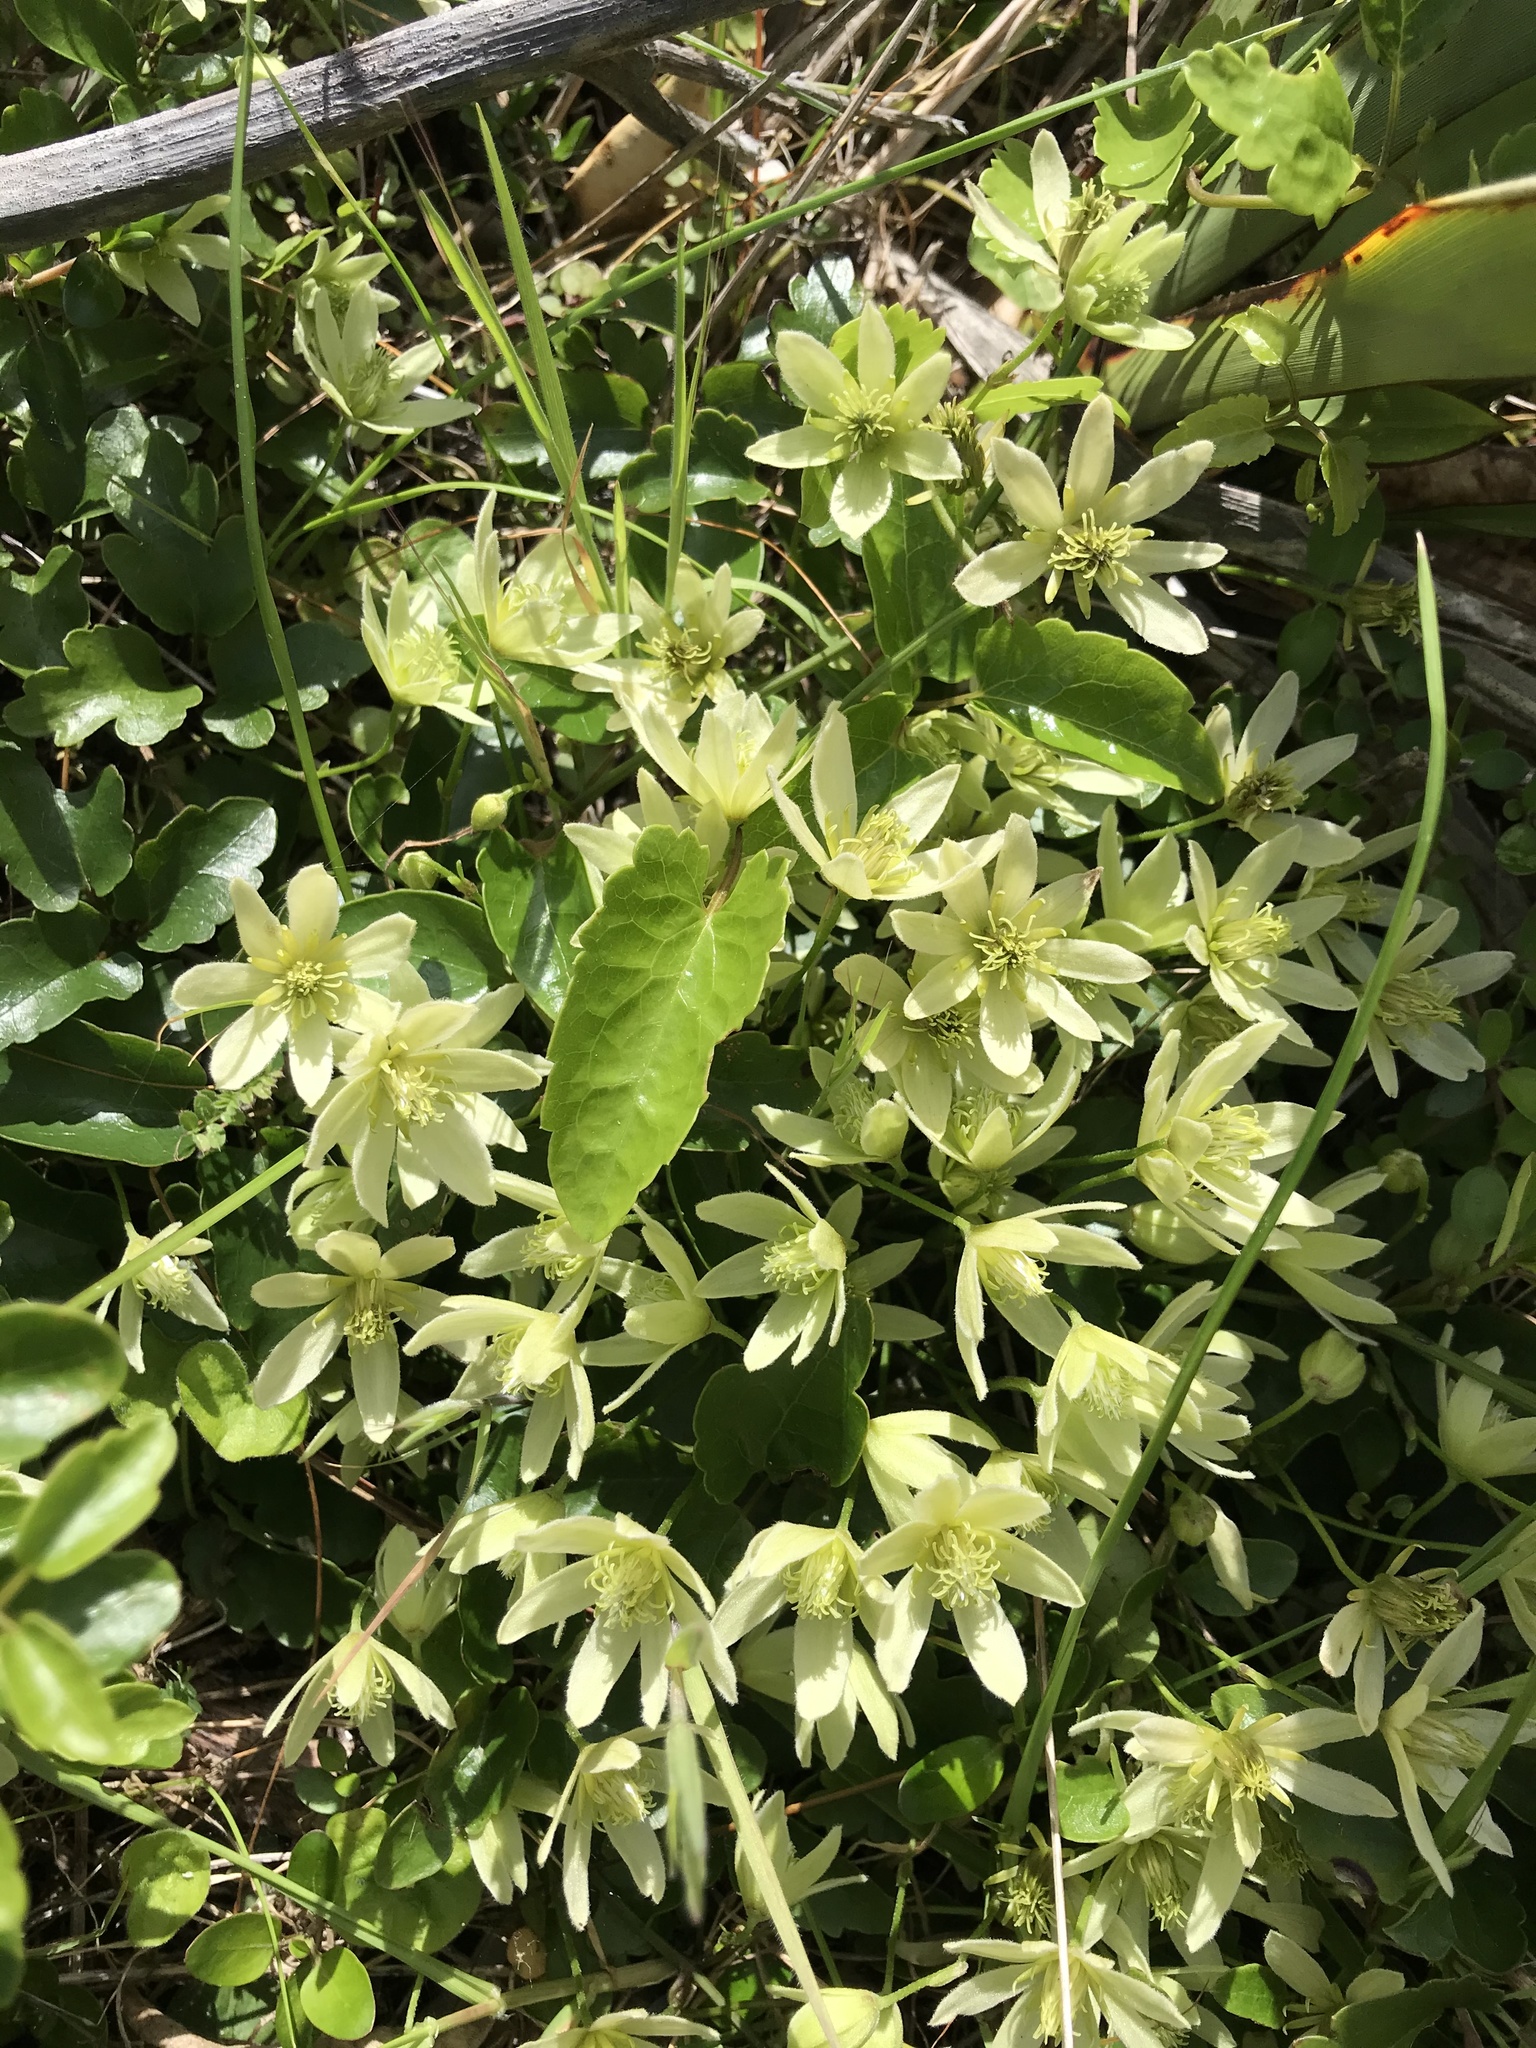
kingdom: Plantae
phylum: Tracheophyta
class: Magnoliopsida
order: Ranunculales
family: Ranunculaceae
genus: Clematis
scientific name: Clematis forsteri
